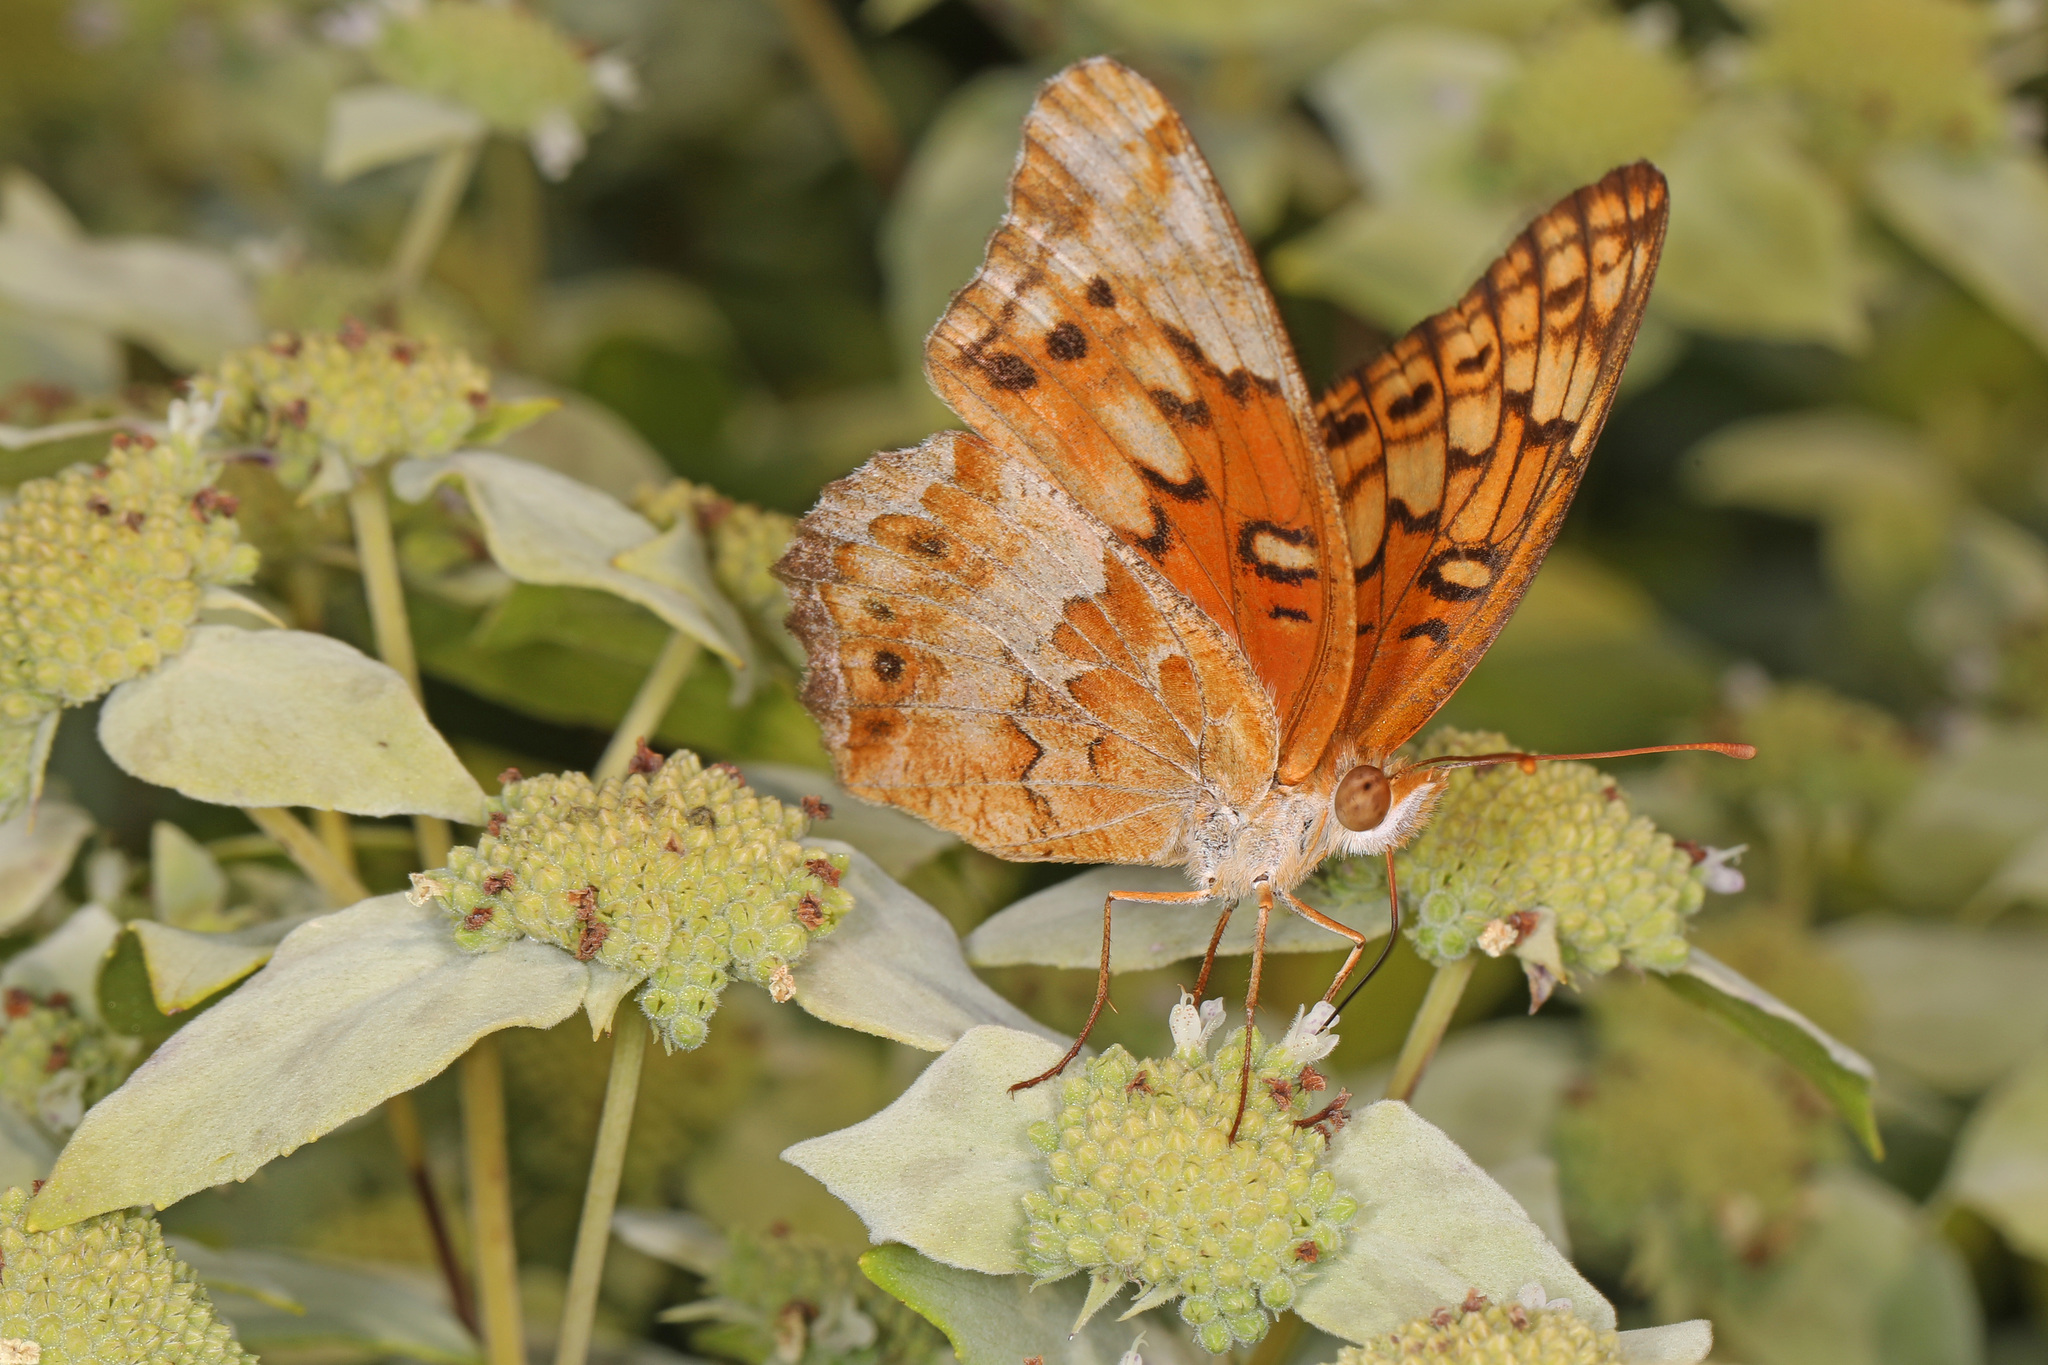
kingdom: Animalia
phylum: Arthropoda
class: Insecta
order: Lepidoptera
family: Nymphalidae
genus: Euptoieta
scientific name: Euptoieta claudia
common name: Variegated fritillary
